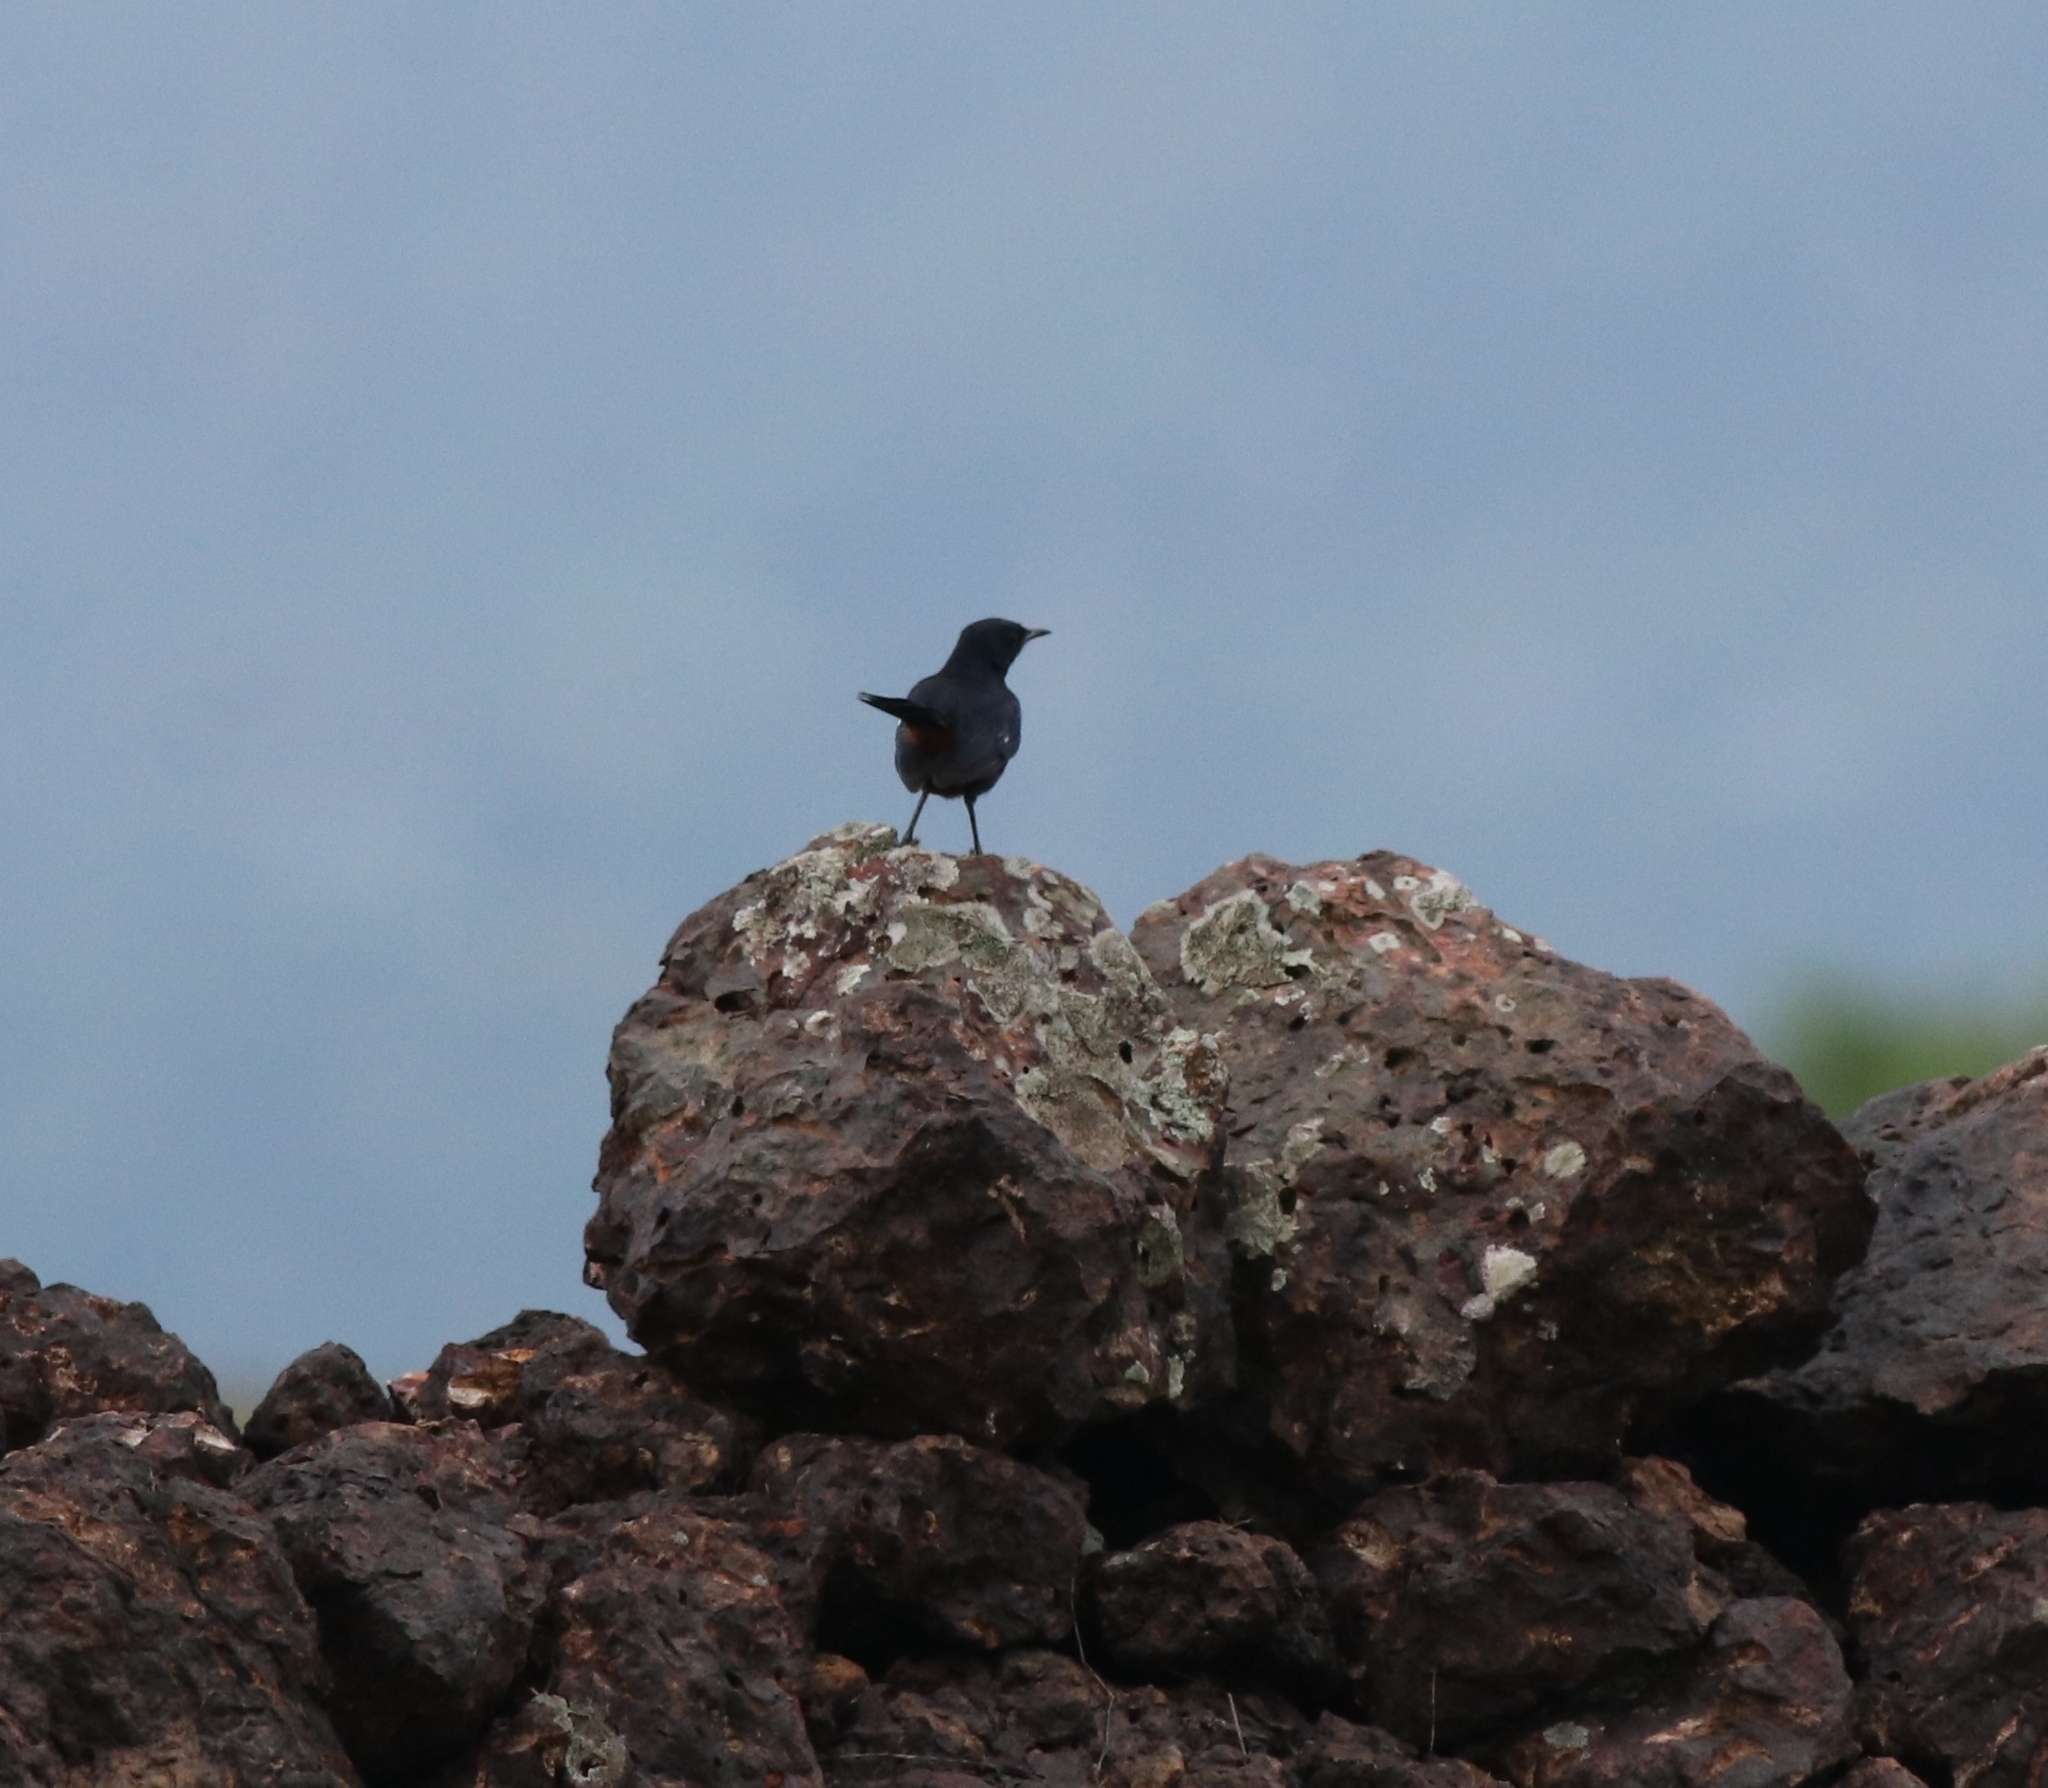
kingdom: Animalia
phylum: Chordata
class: Aves
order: Passeriformes
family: Muscicapidae
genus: Saxicoloides
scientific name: Saxicoloides fulicatus
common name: Indian robin
